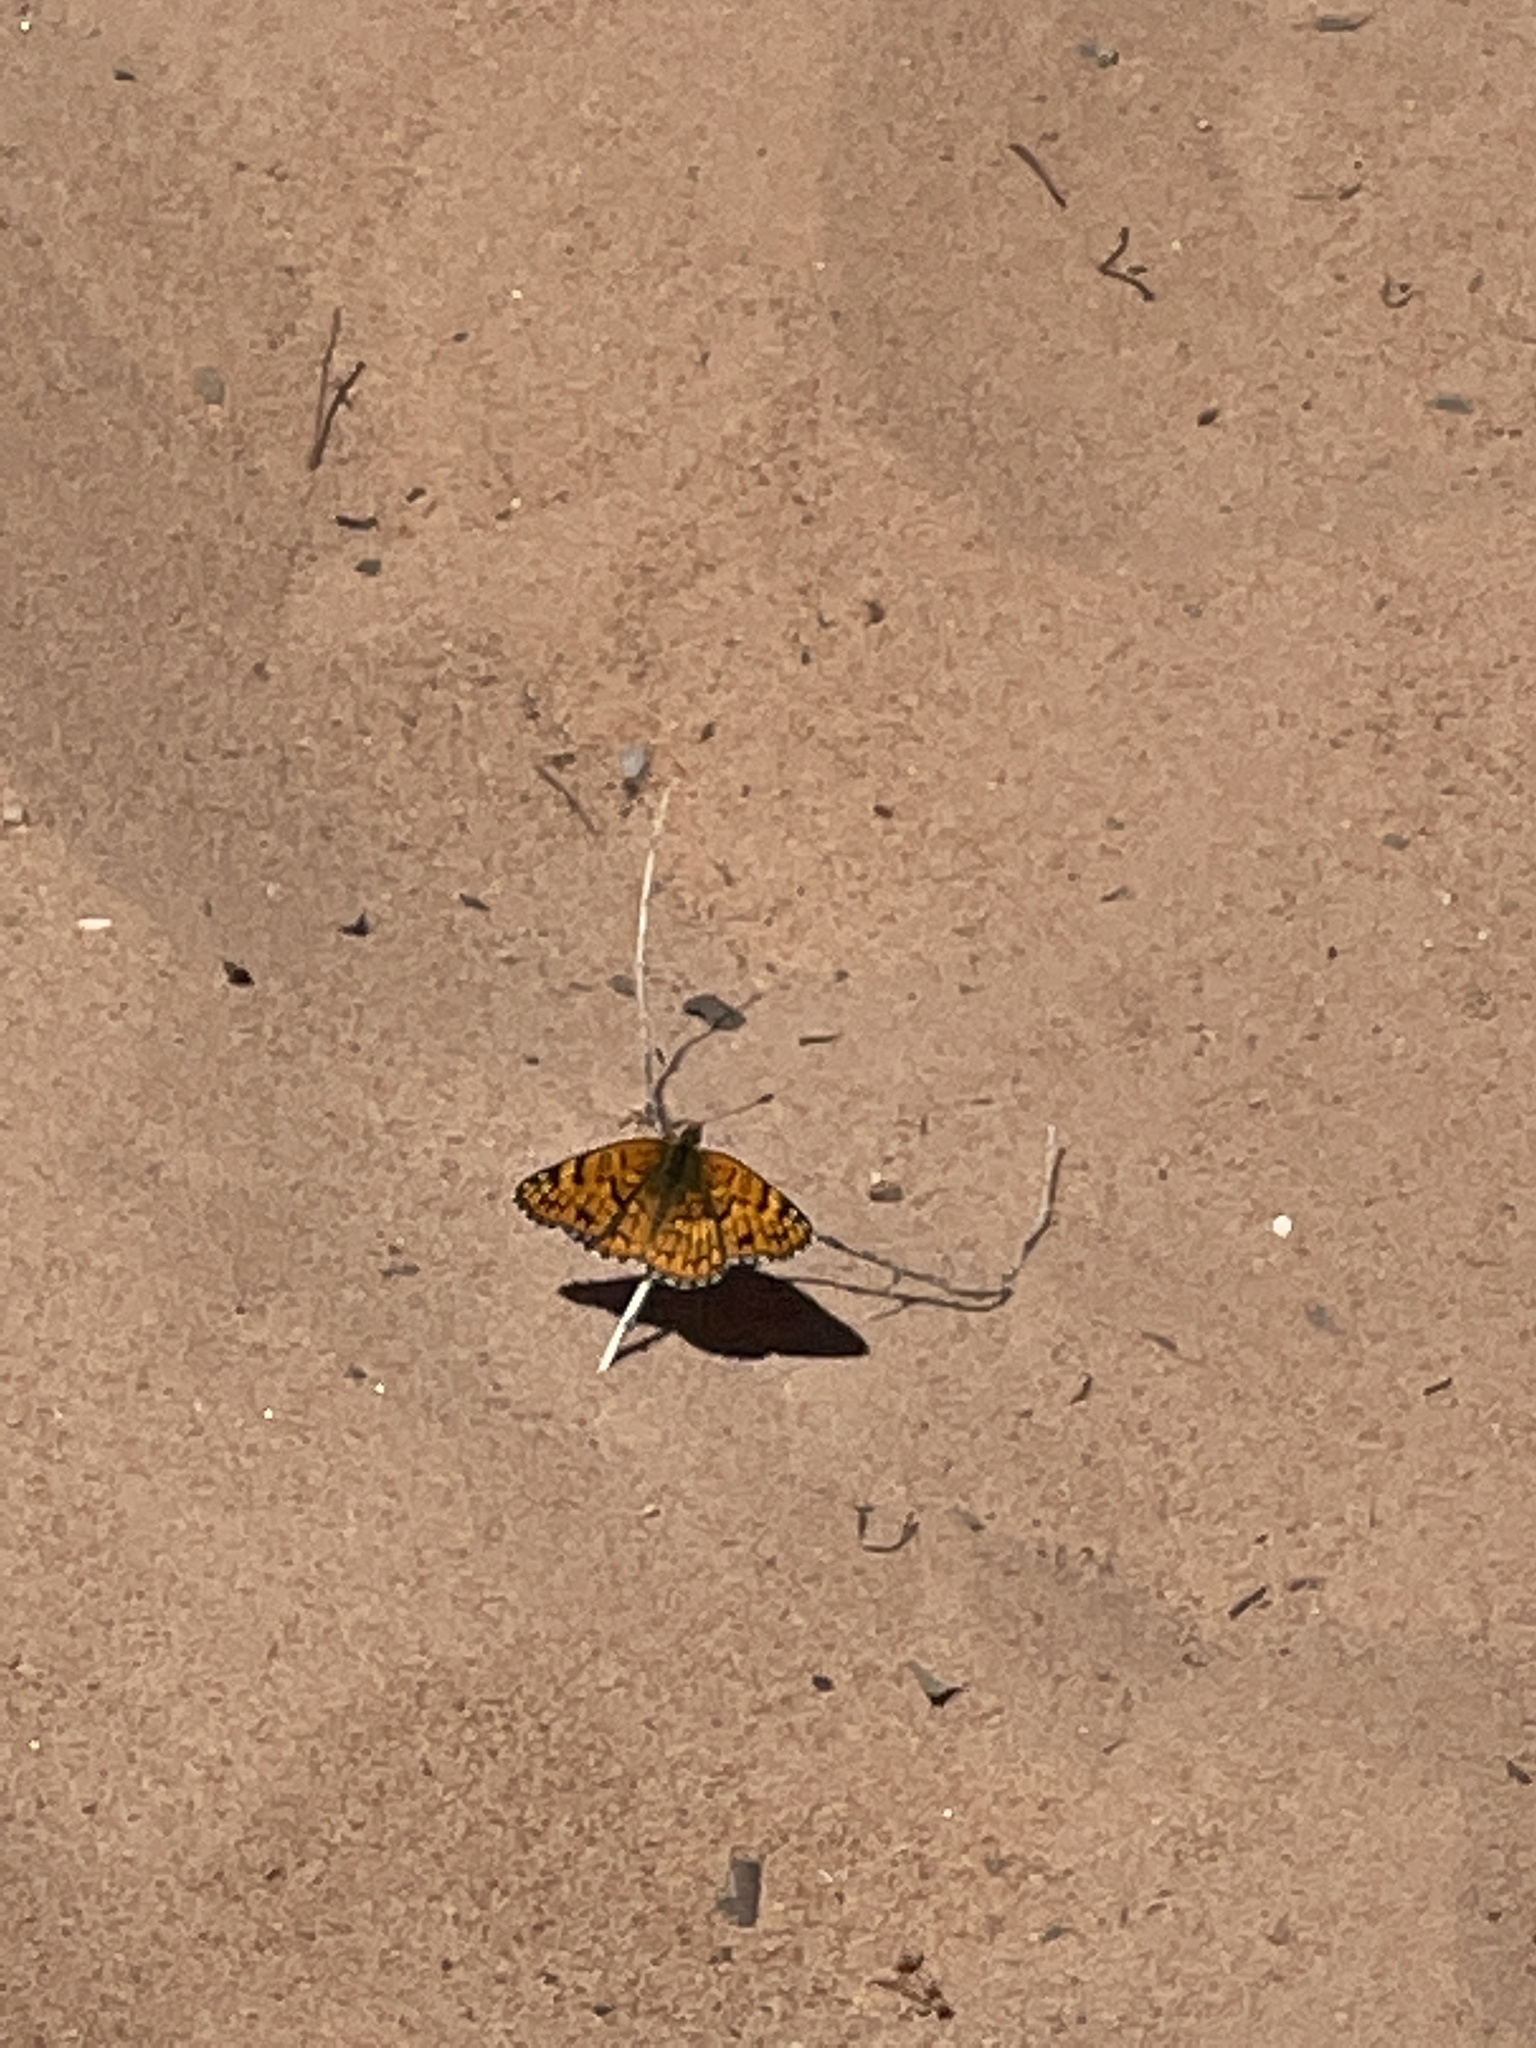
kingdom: Animalia
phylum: Arthropoda
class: Insecta
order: Lepidoptera
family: Nymphalidae
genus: Chlosyne
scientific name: Chlosyne acastus
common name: Sagebrush checkerspot
